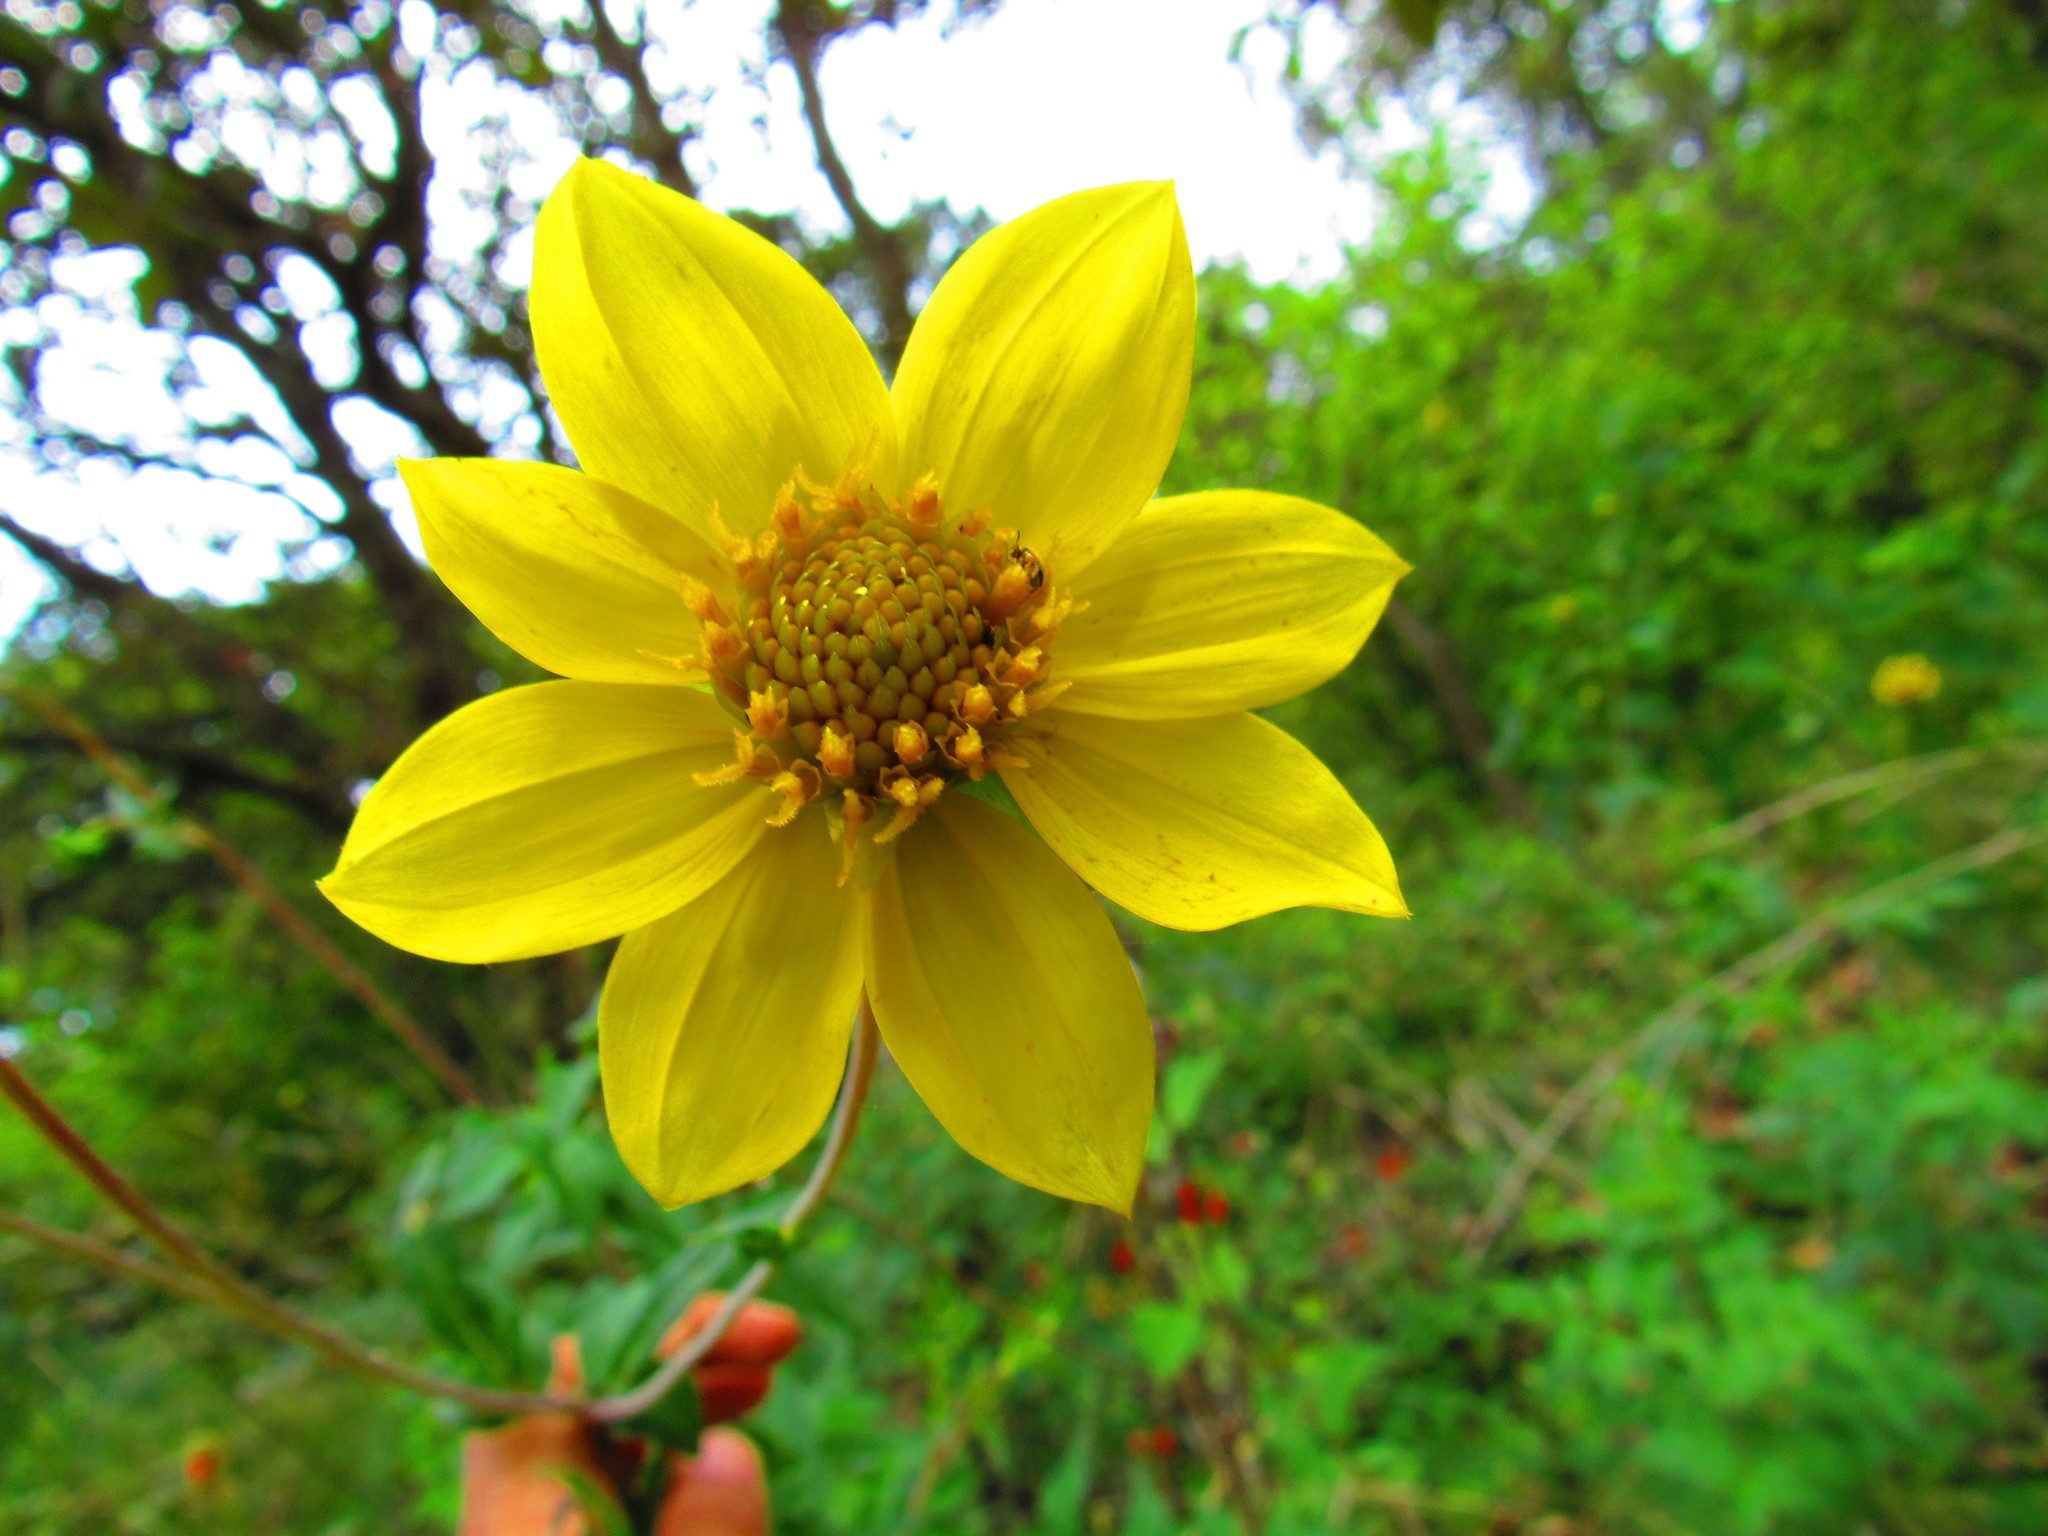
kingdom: Plantae
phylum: Tracheophyta
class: Magnoliopsida
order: Asterales
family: Asteraceae
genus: Dahlia
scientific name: Dahlia coccinea
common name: Red dahlia
